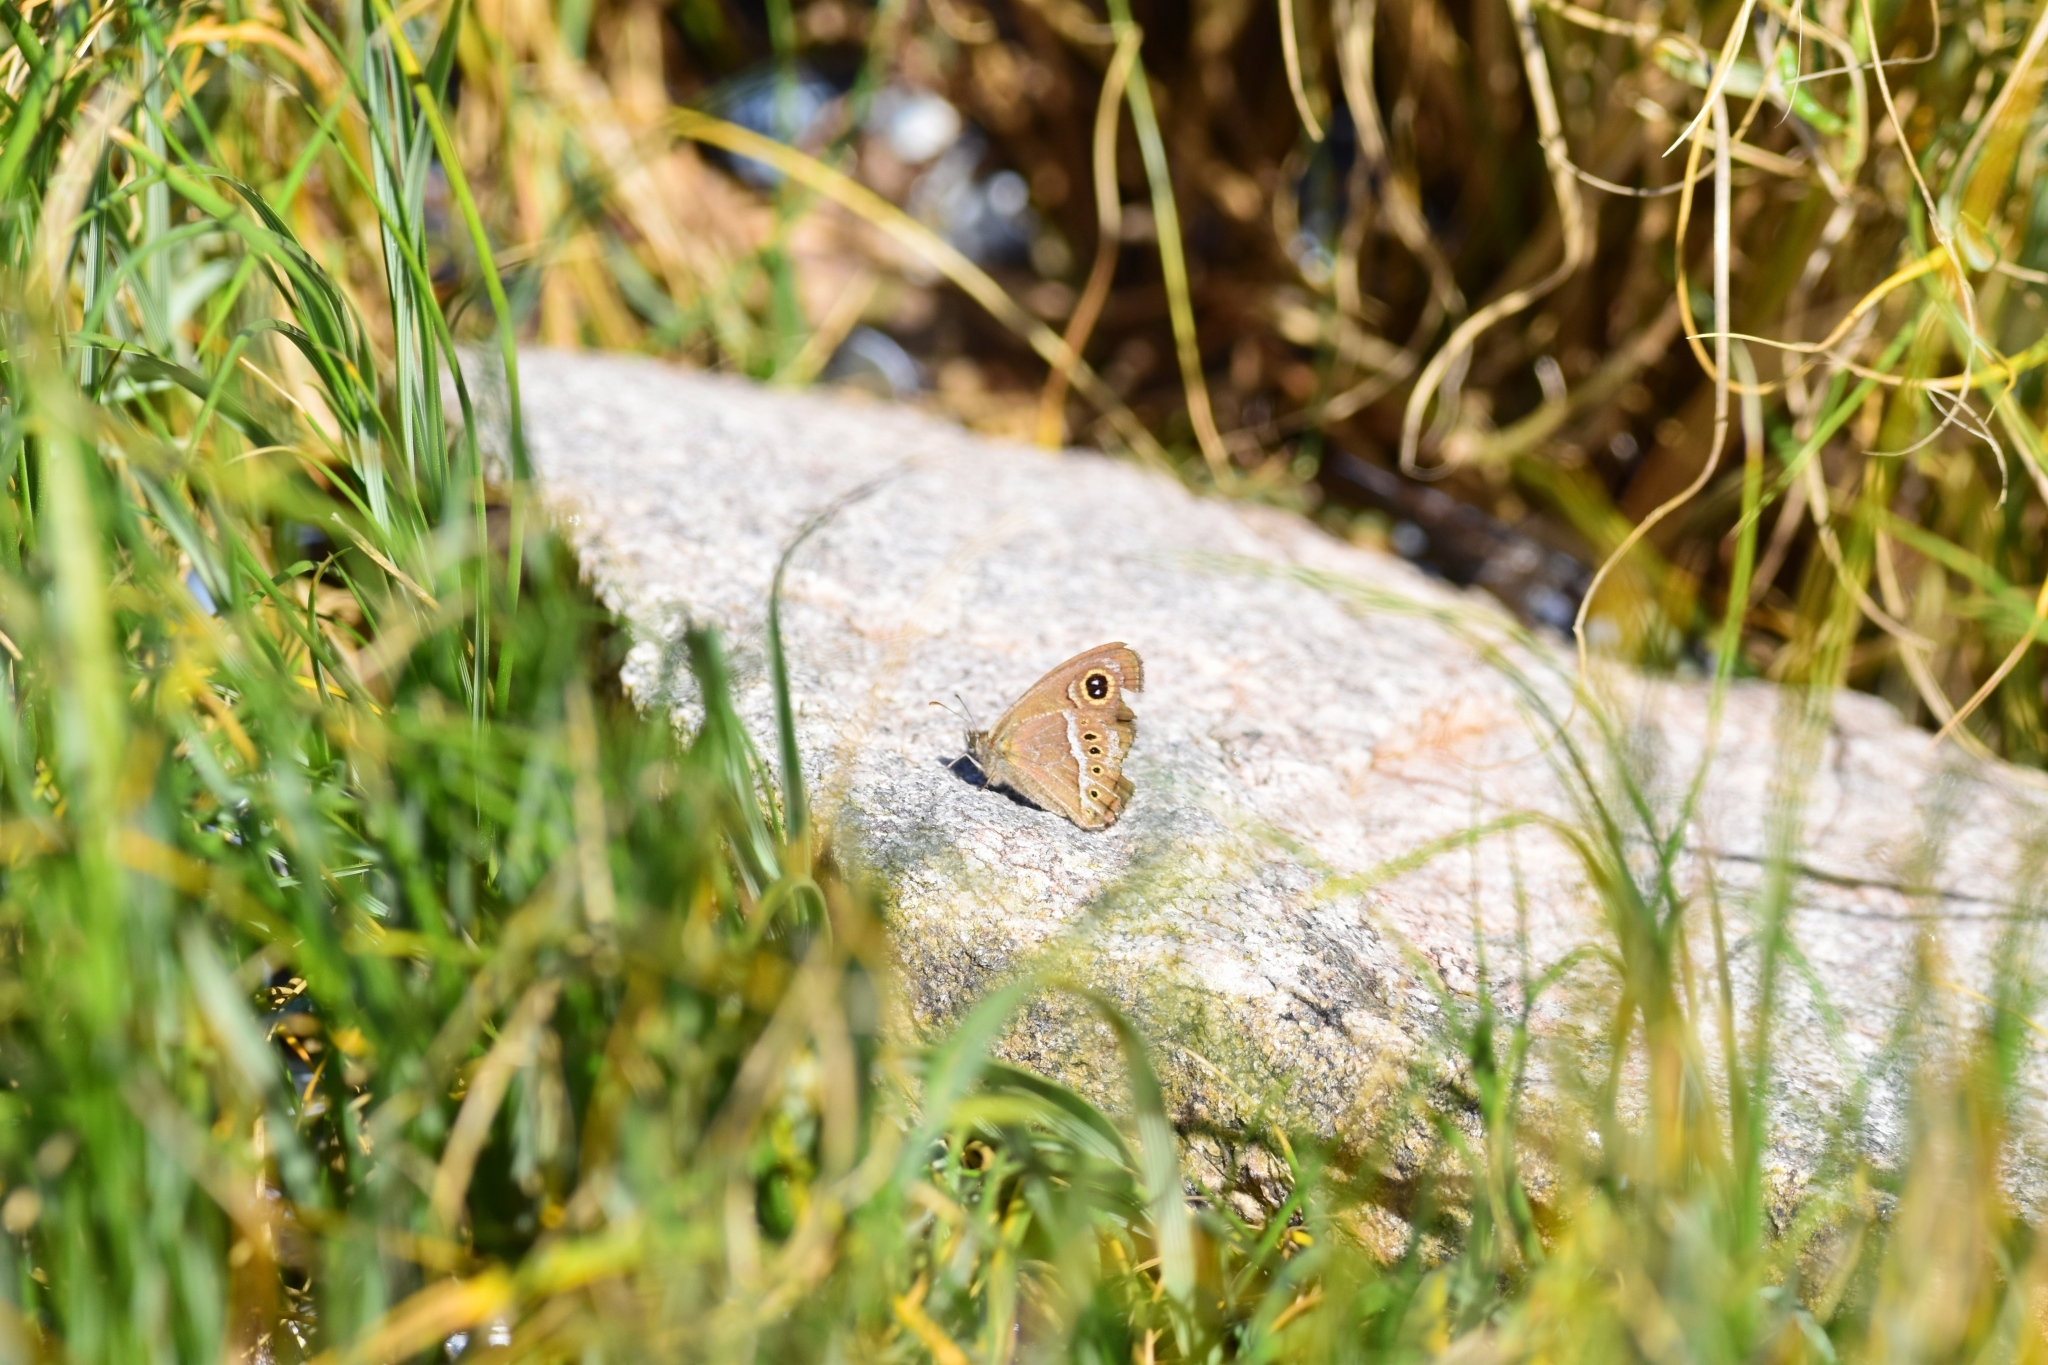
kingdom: Animalia
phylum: Arthropoda
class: Insecta
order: Lepidoptera
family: Nymphalidae
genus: Pampasatyrus
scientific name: Pampasatyrus gyrtone
